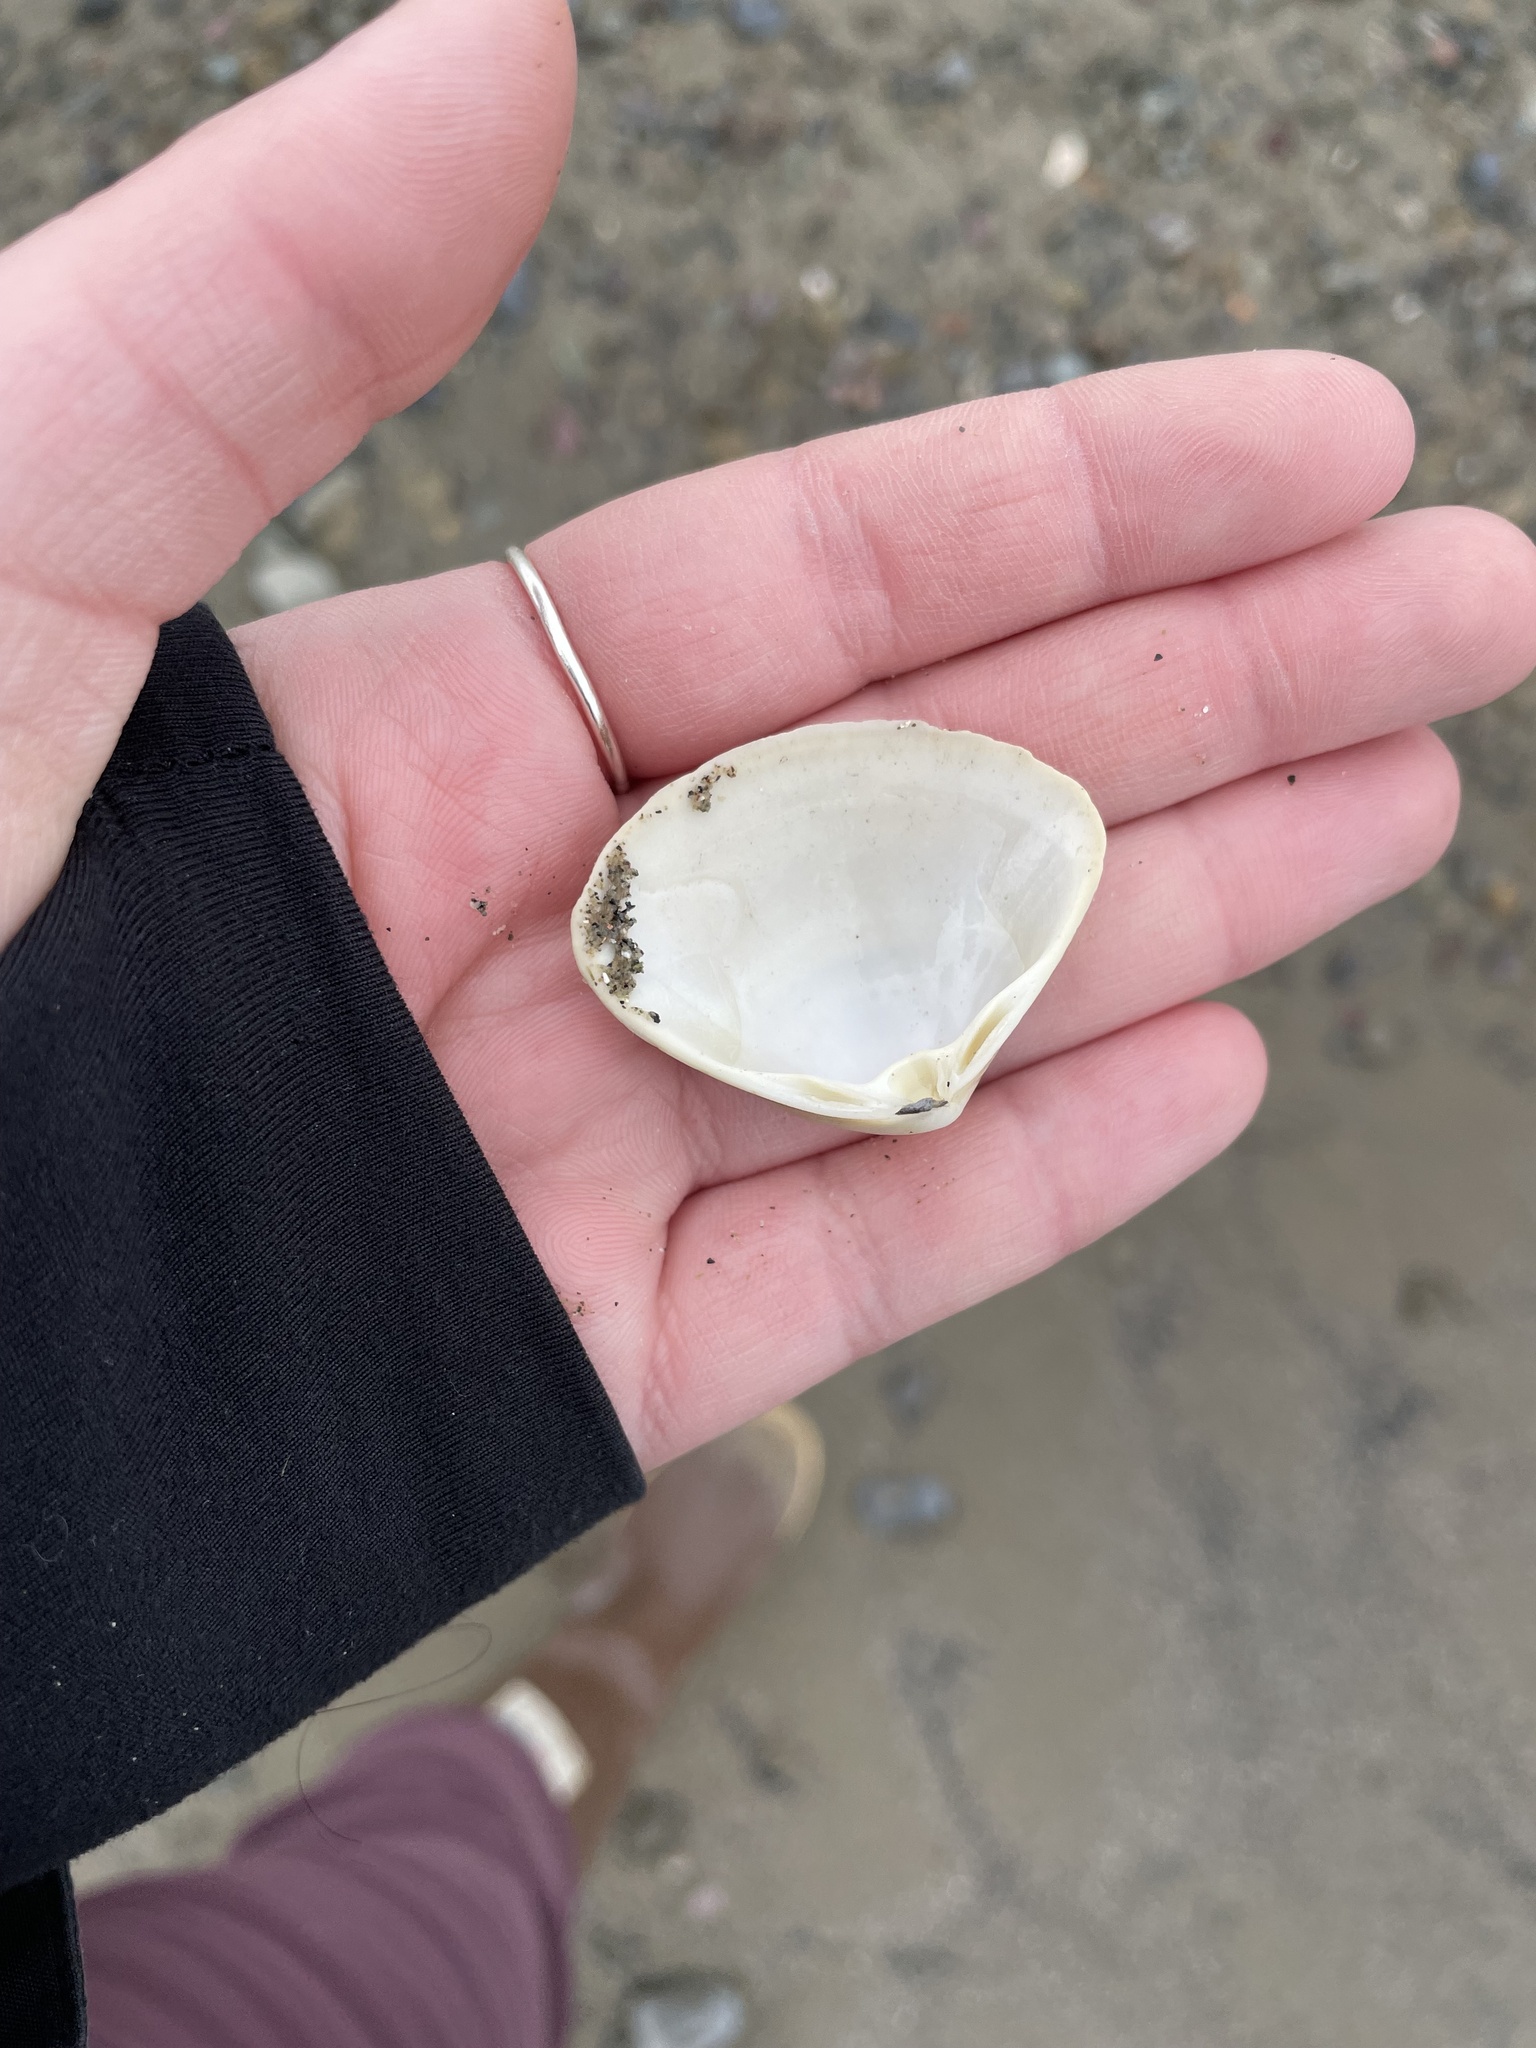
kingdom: Animalia
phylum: Mollusca
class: Bivalvia
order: Venerida
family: Mactridae
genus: Spisula
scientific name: Spisula solidissima
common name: Atlantic surf clam
